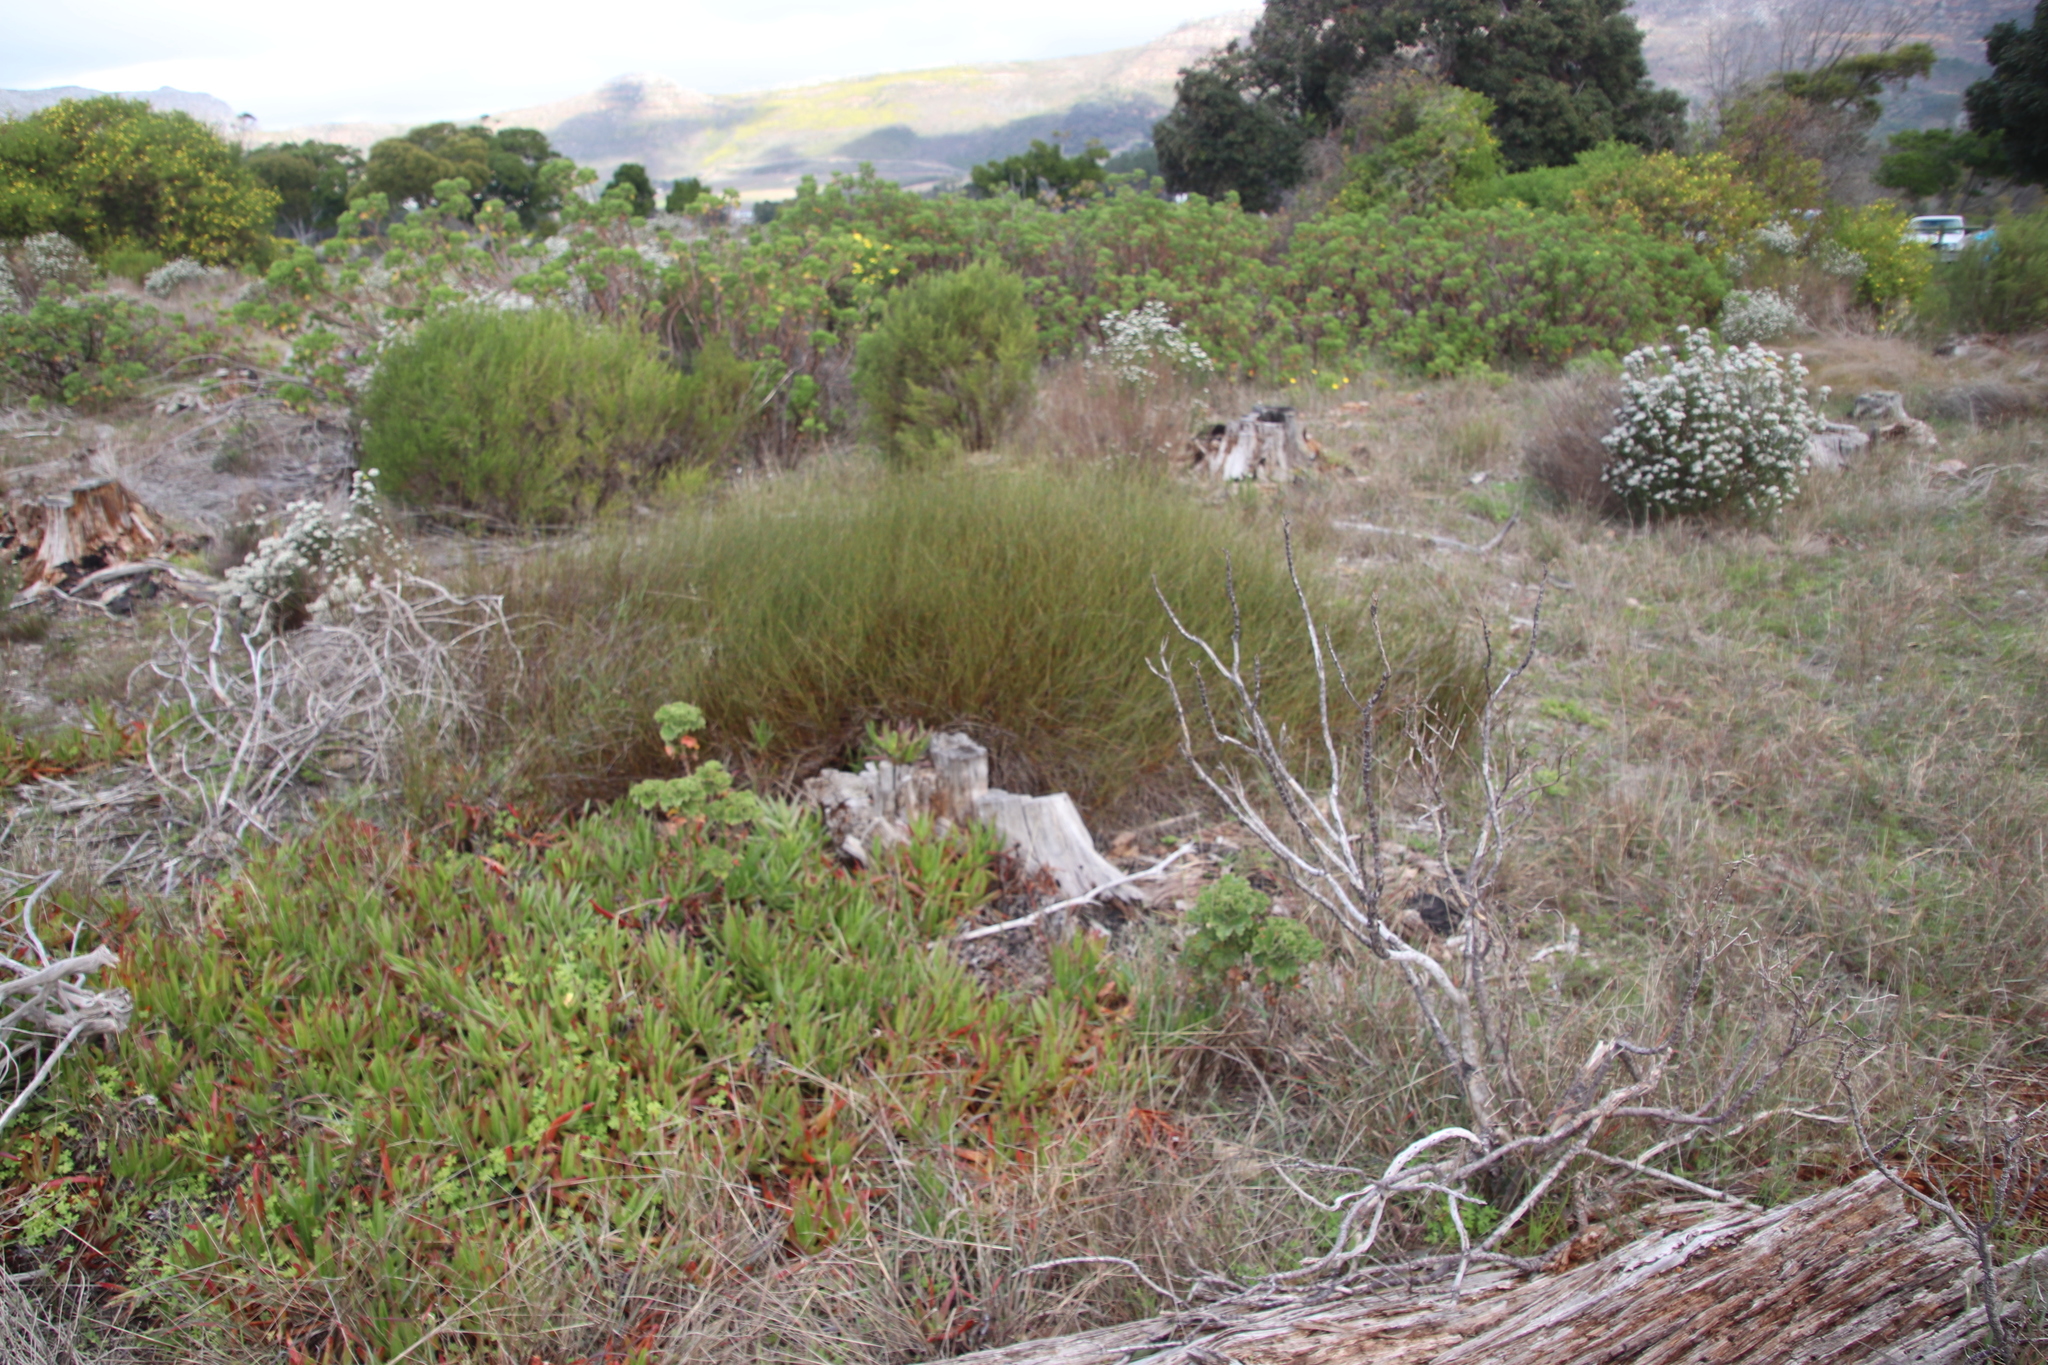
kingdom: Plantae
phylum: Tracheophyta
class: Liliopsida
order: Poales
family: Restionaceae
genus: Willdenowia
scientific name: Willdenowia sulcata
